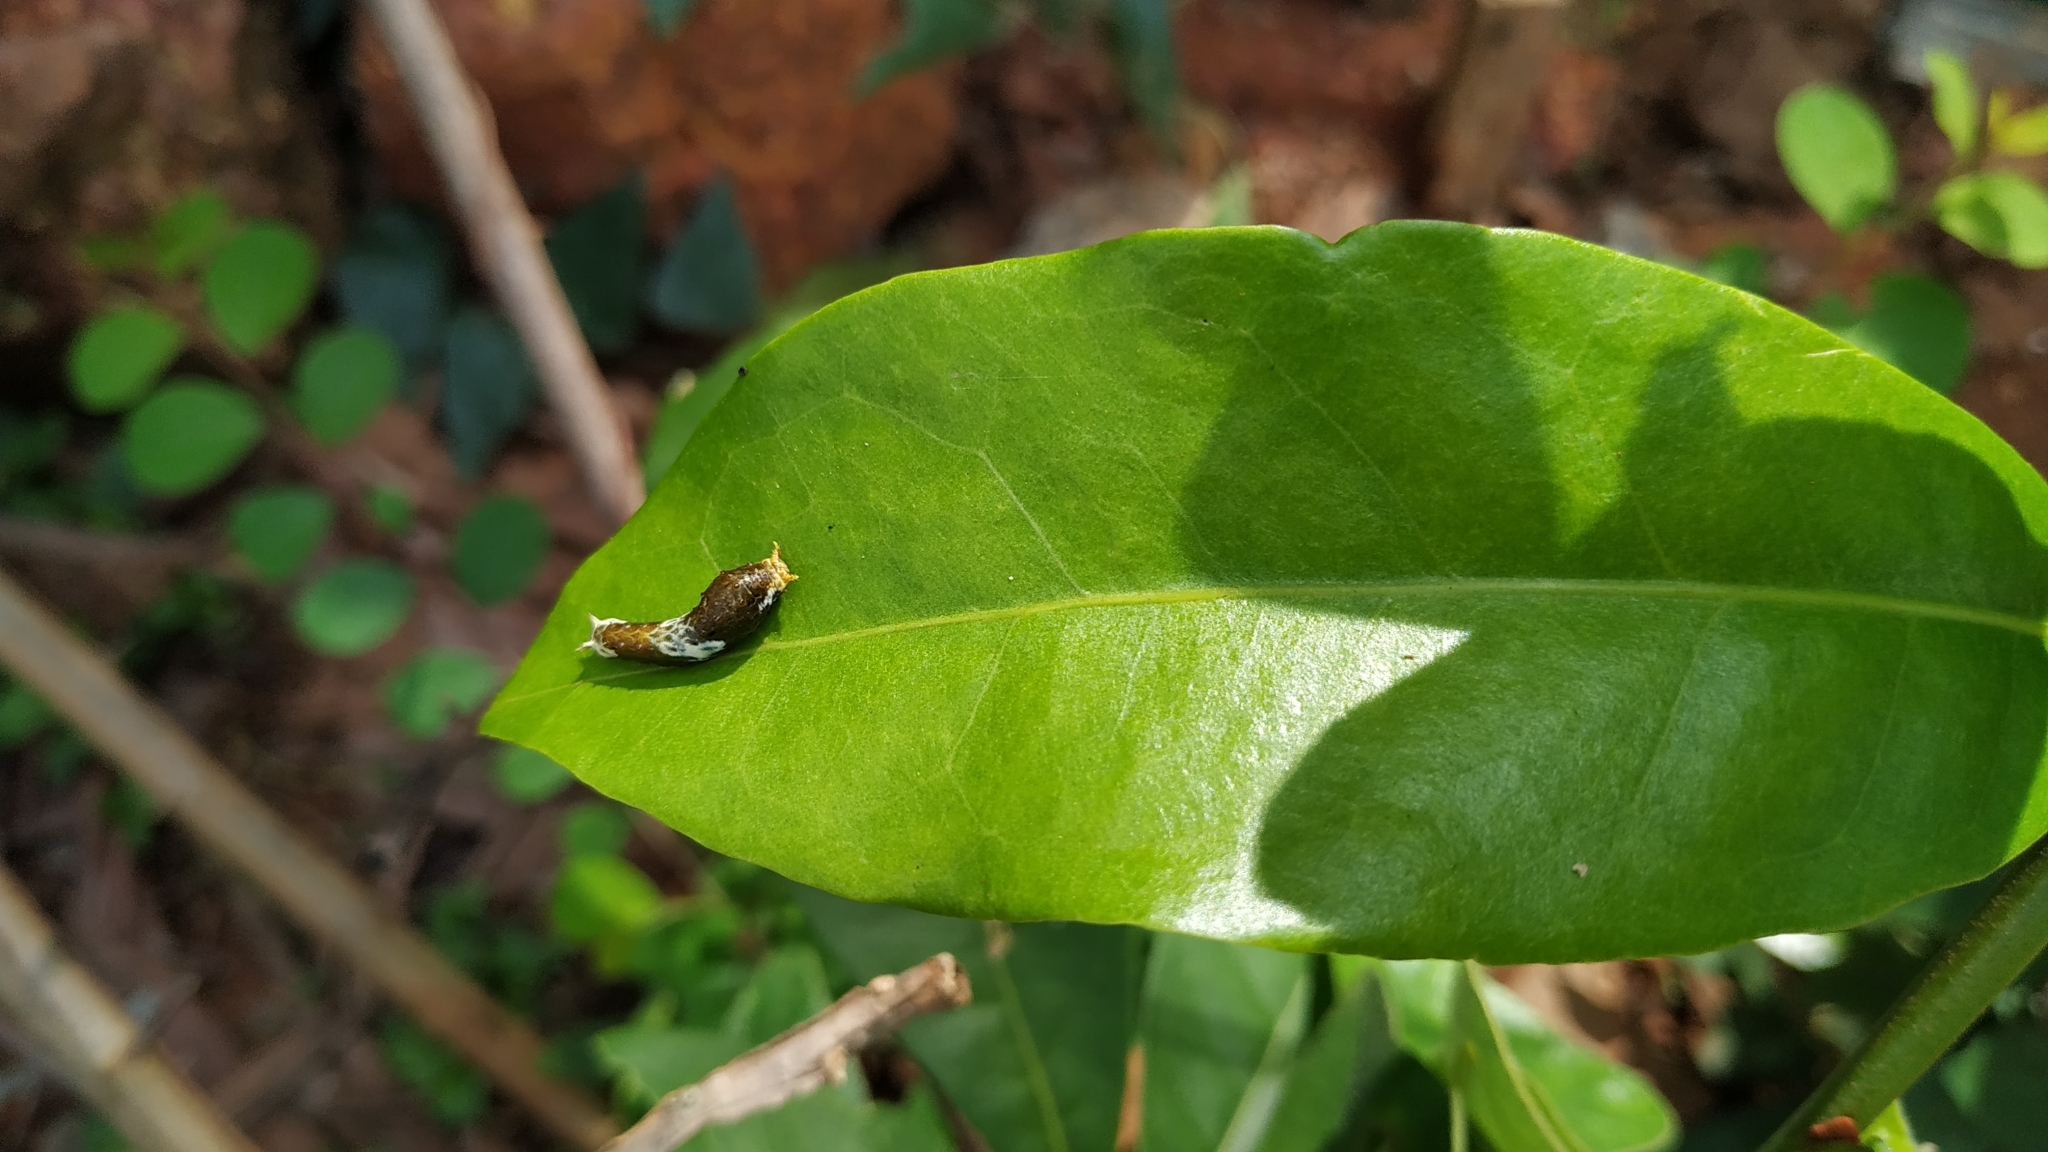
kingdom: Animalia
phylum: Arthropoda
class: Insecta
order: Lepidoptera
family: Papilionidae
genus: Papilio
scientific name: Papilio polytes
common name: Common mormon
